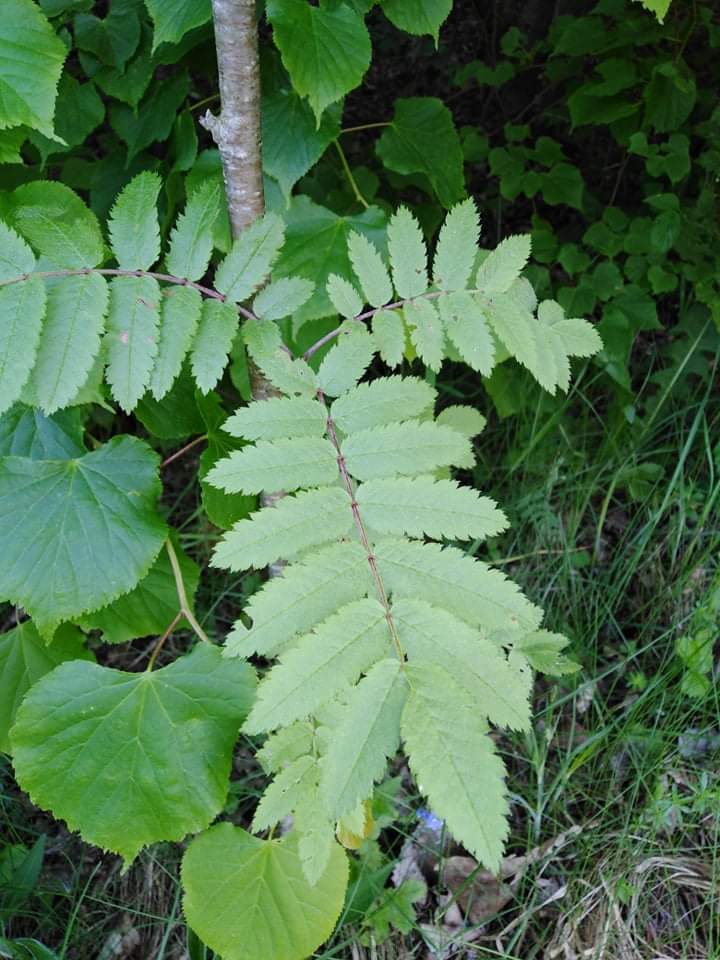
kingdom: Plantae
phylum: Tracheophyta
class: Magnoliopsida
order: Rosales
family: Rosaceae
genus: Sorbus
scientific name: Sorbus aucuparia
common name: Rowan
